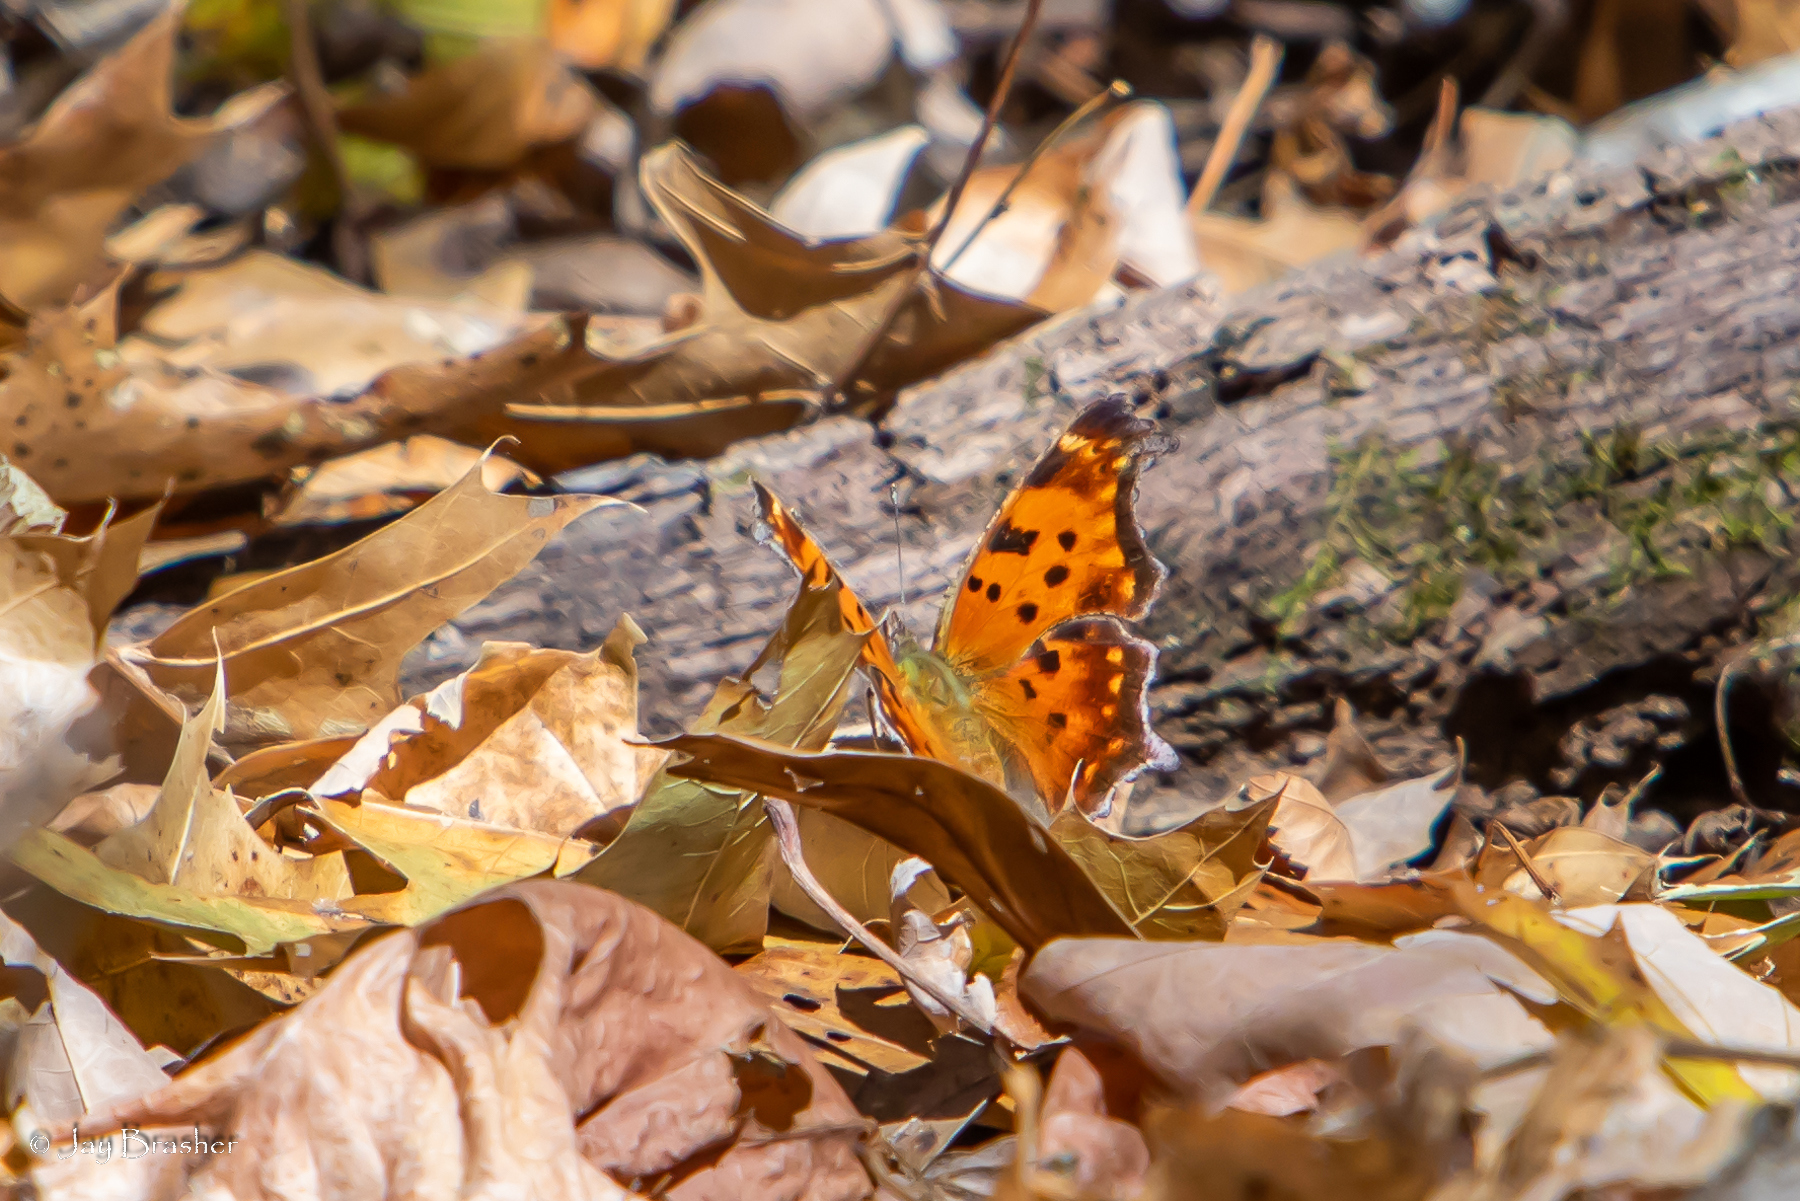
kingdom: Animalia
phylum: Arthropoda
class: Insecta
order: Lepidoptera
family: Nymphalidae
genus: Polygonia
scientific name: Polygonia comma
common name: Eastern comma
